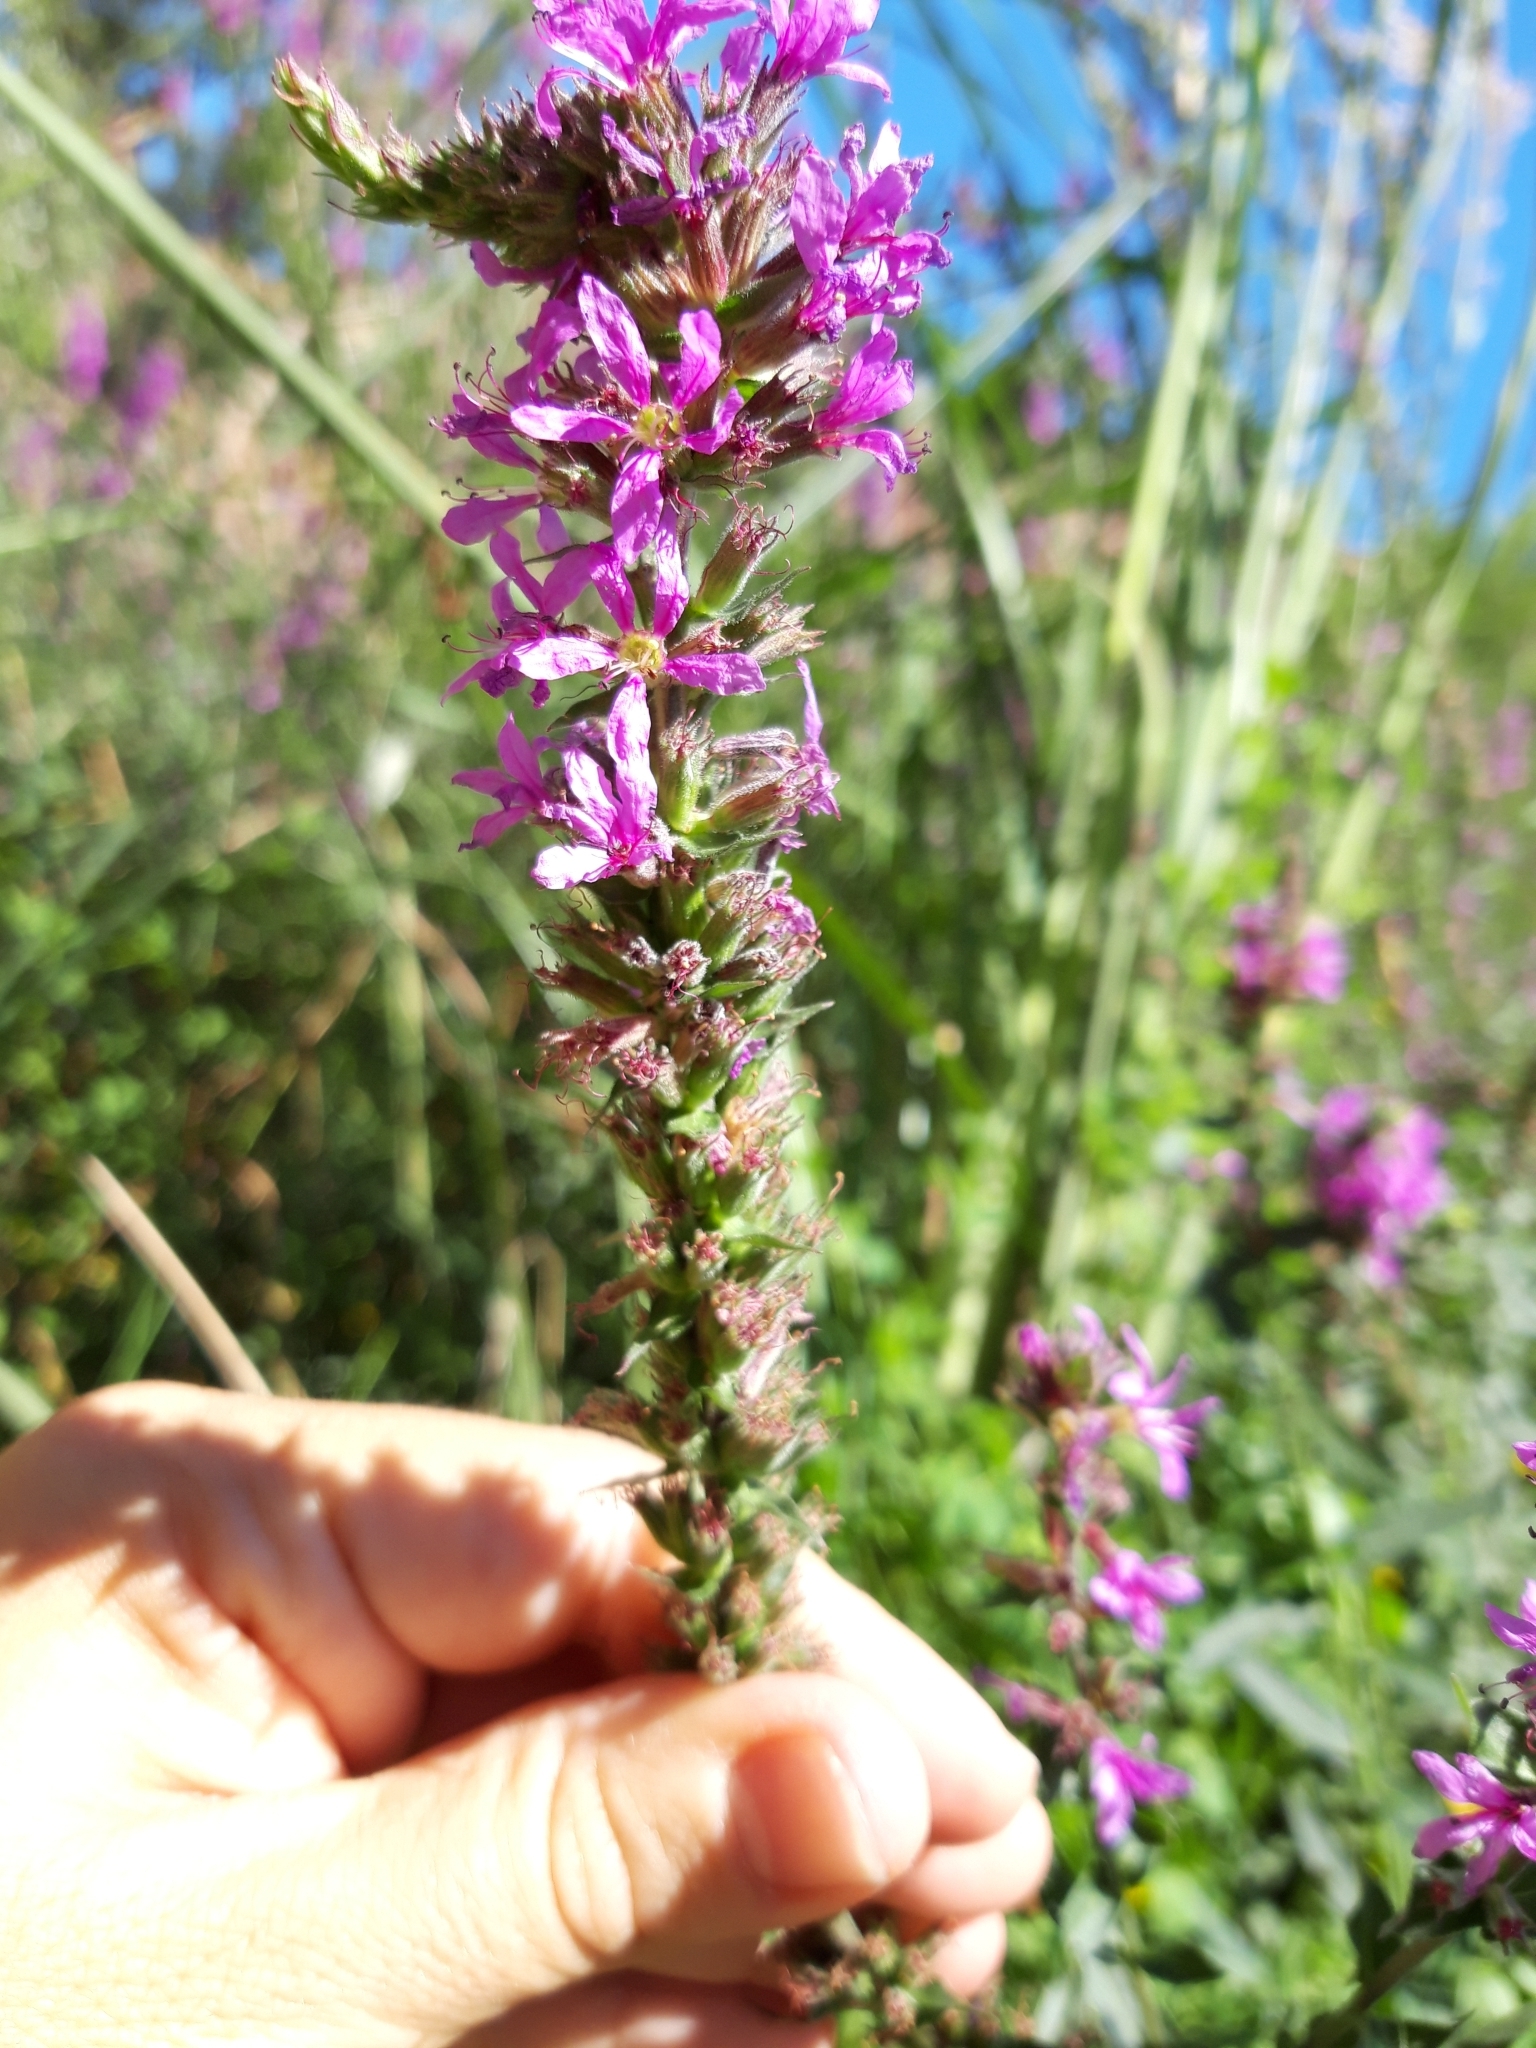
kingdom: Plantae
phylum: Tracheophyta
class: Magnoliopsida
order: Myrtales
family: Lythraceae
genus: Lythrum
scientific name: Lythrum salicaria
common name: Purple loosestrife
